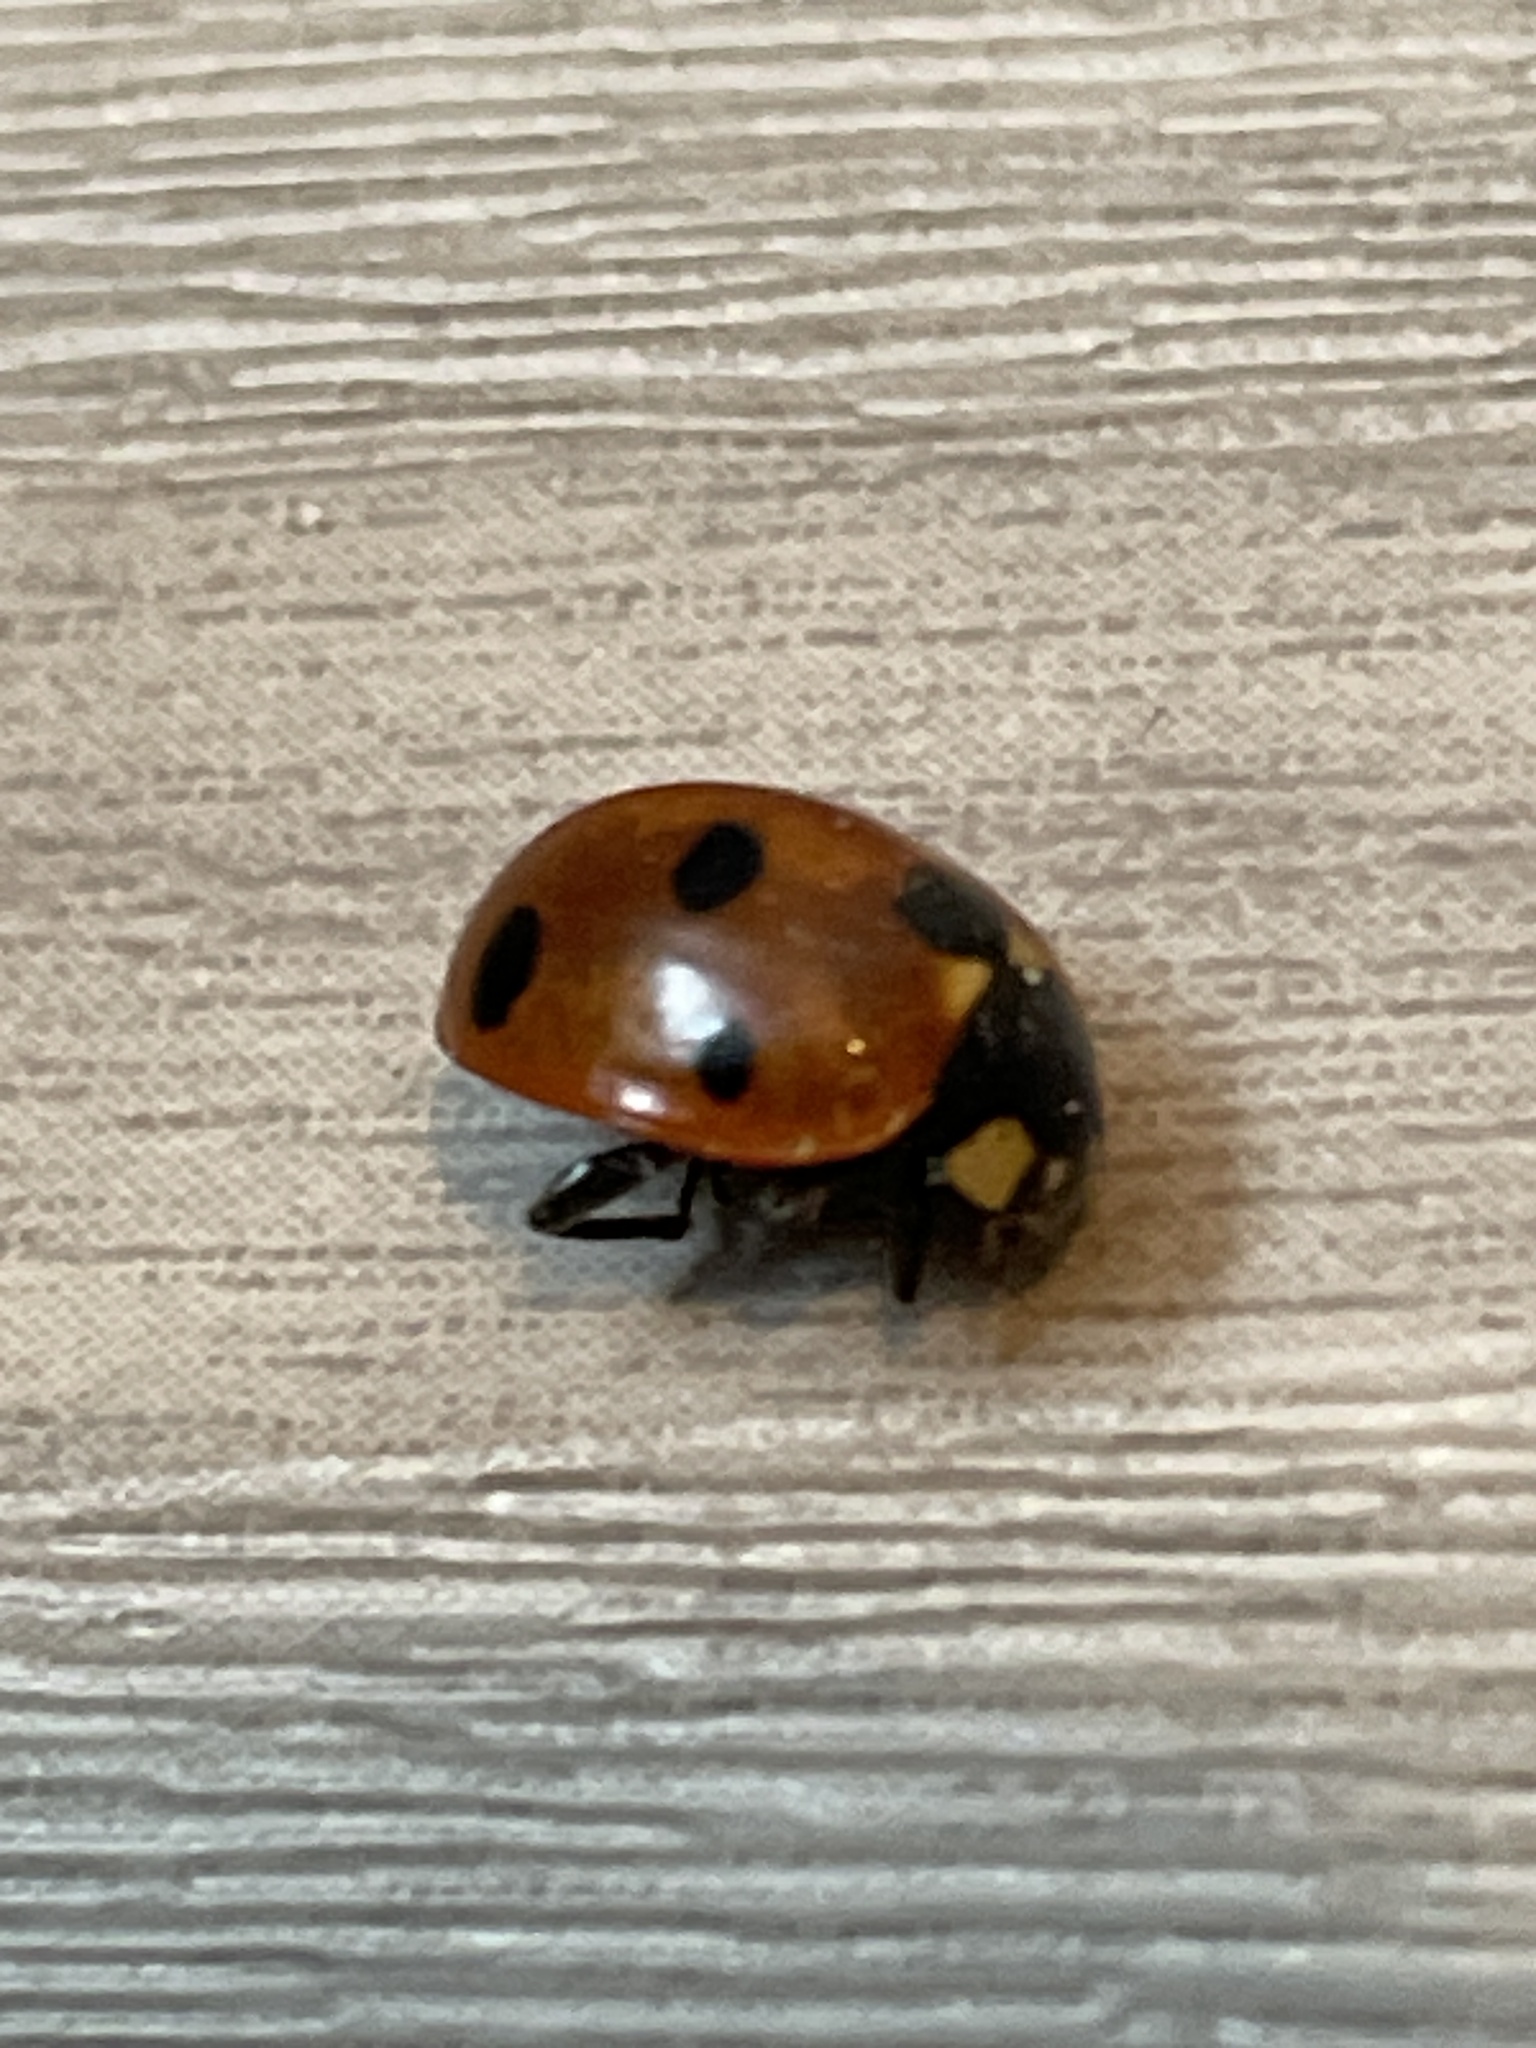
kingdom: Animalia
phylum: Arthropoda
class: Insecta
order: Coleoptera
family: Coccinellidae
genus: Coccinella
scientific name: Coccinella septempunctata
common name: Sevenspotted lady beetle
